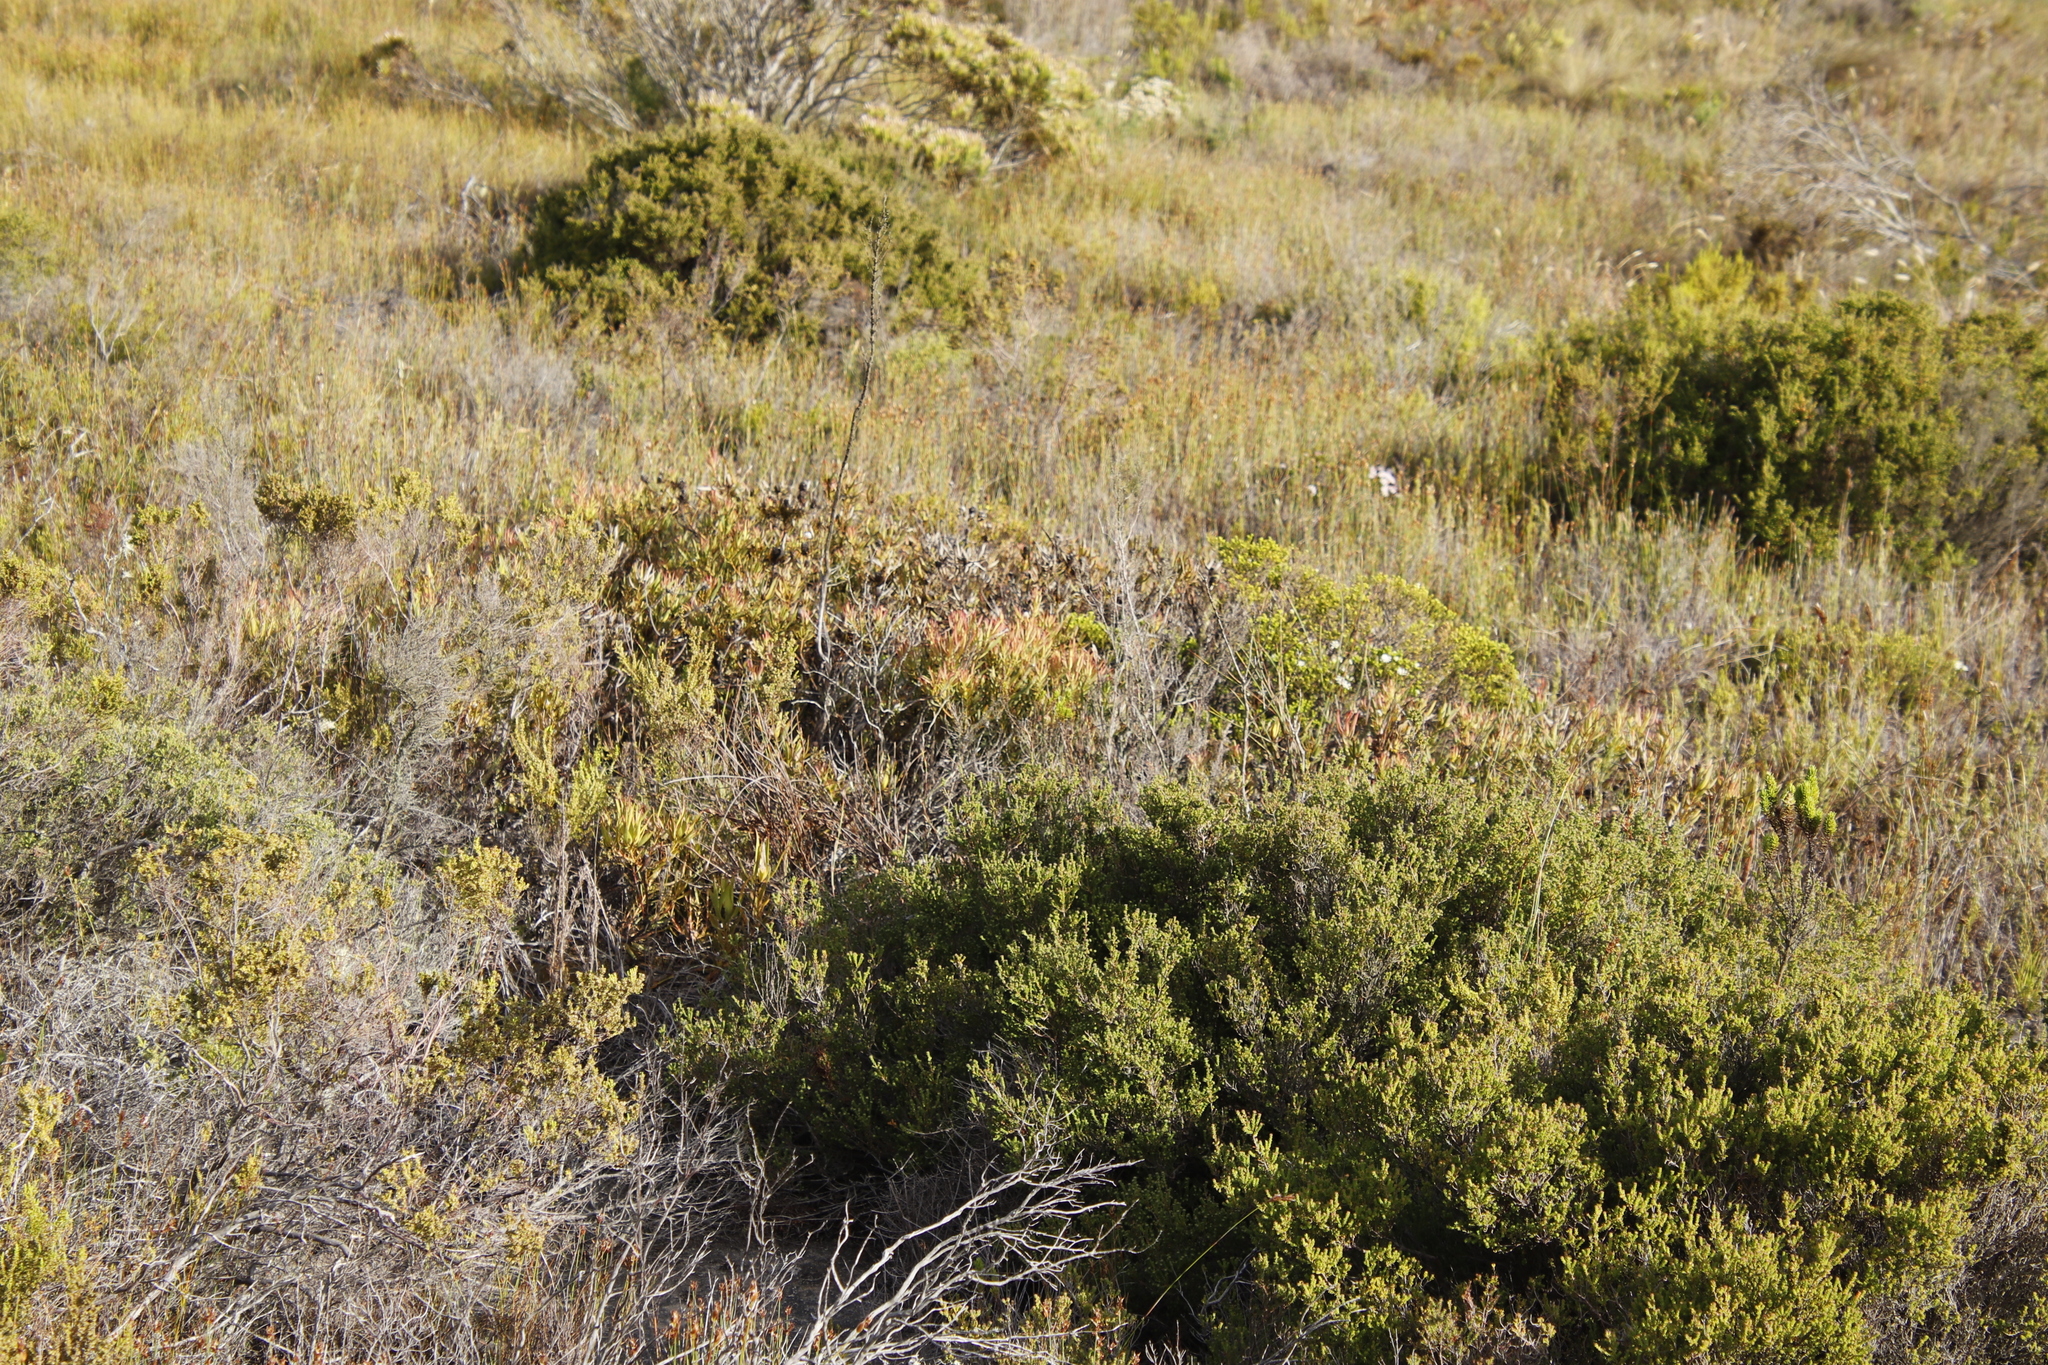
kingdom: Plantae
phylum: Tracheophyta
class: Magnoliopsida
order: Proteales
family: Proteaceae
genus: Leucadendron
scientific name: Leucadendron salignum
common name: Common sunshine conebush
